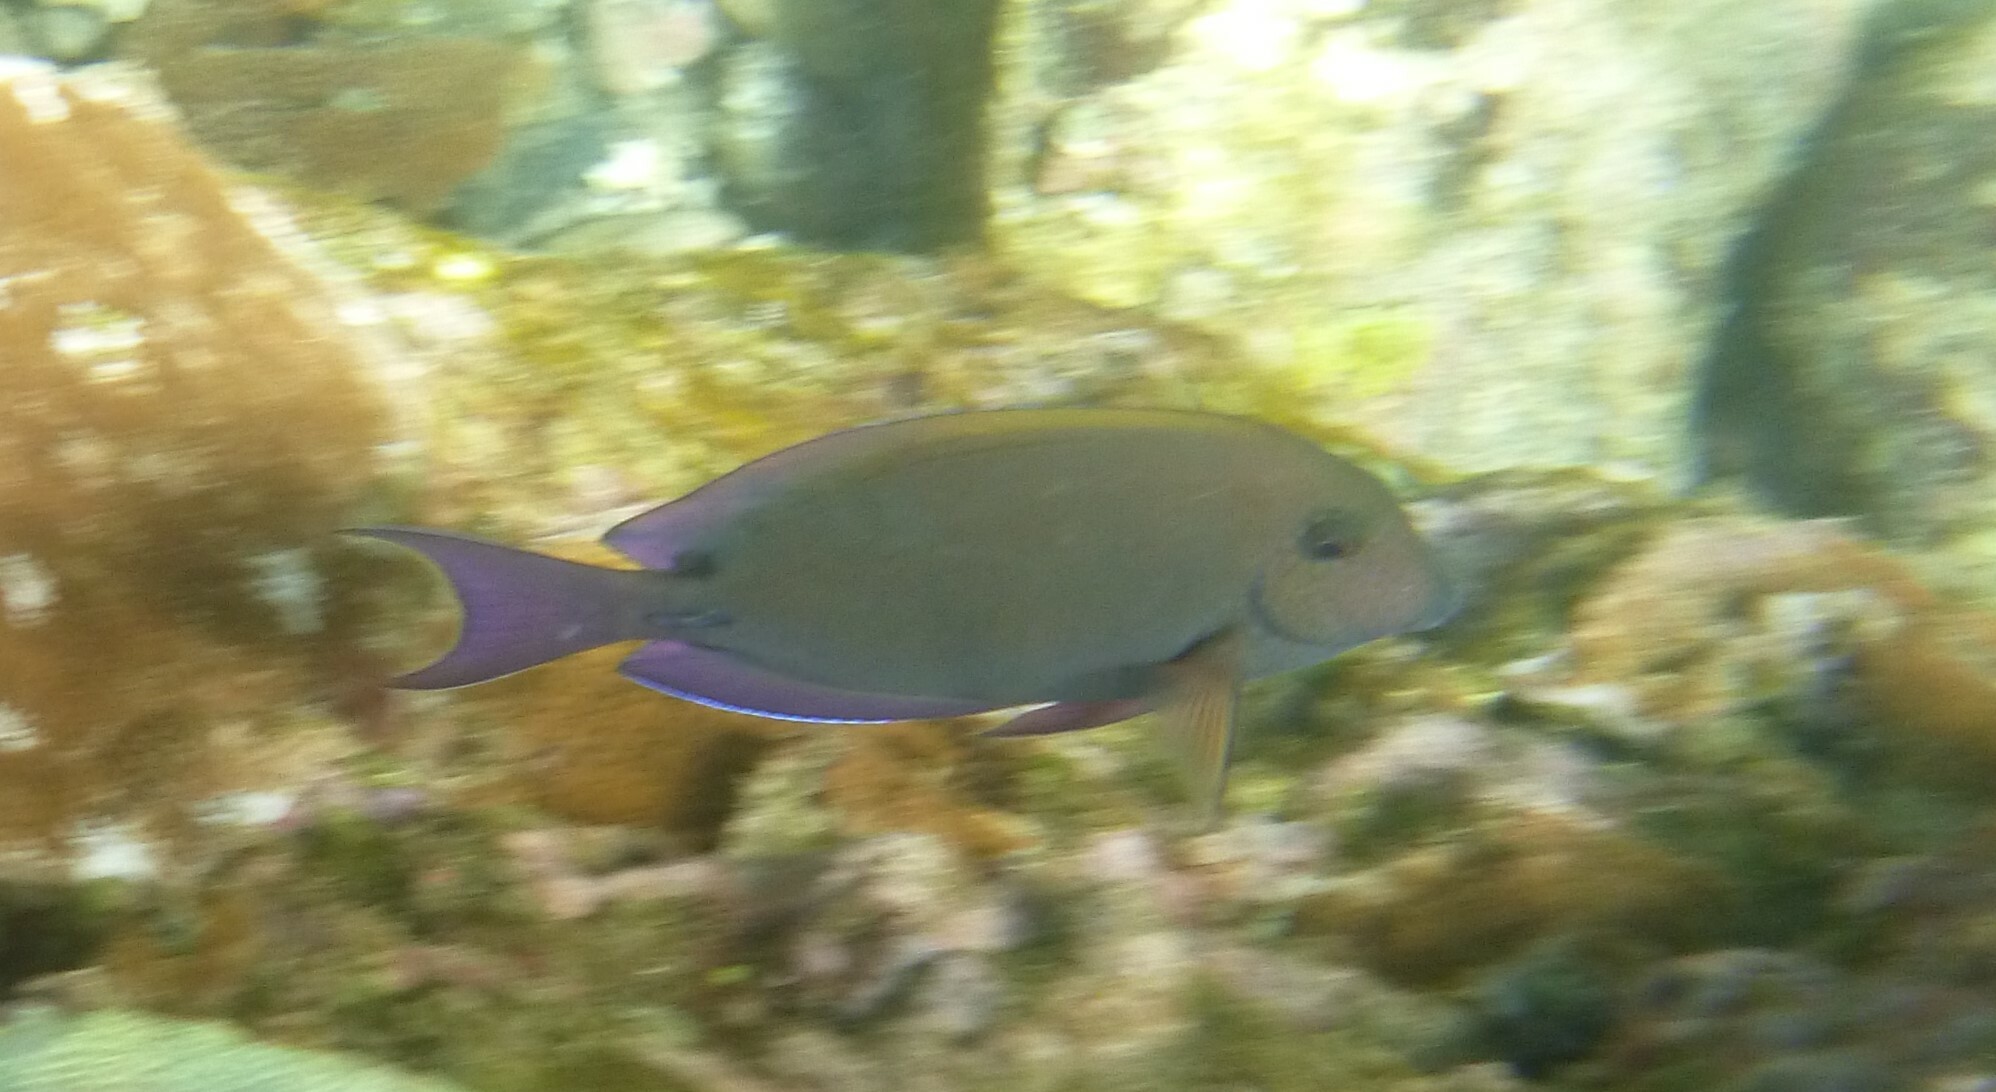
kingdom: Animalia
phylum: Chordata
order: Perciformes
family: Acanthuridae
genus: Acanthurus
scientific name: Acanthurus nigrofuscus
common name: Blackspot surgeonfish
